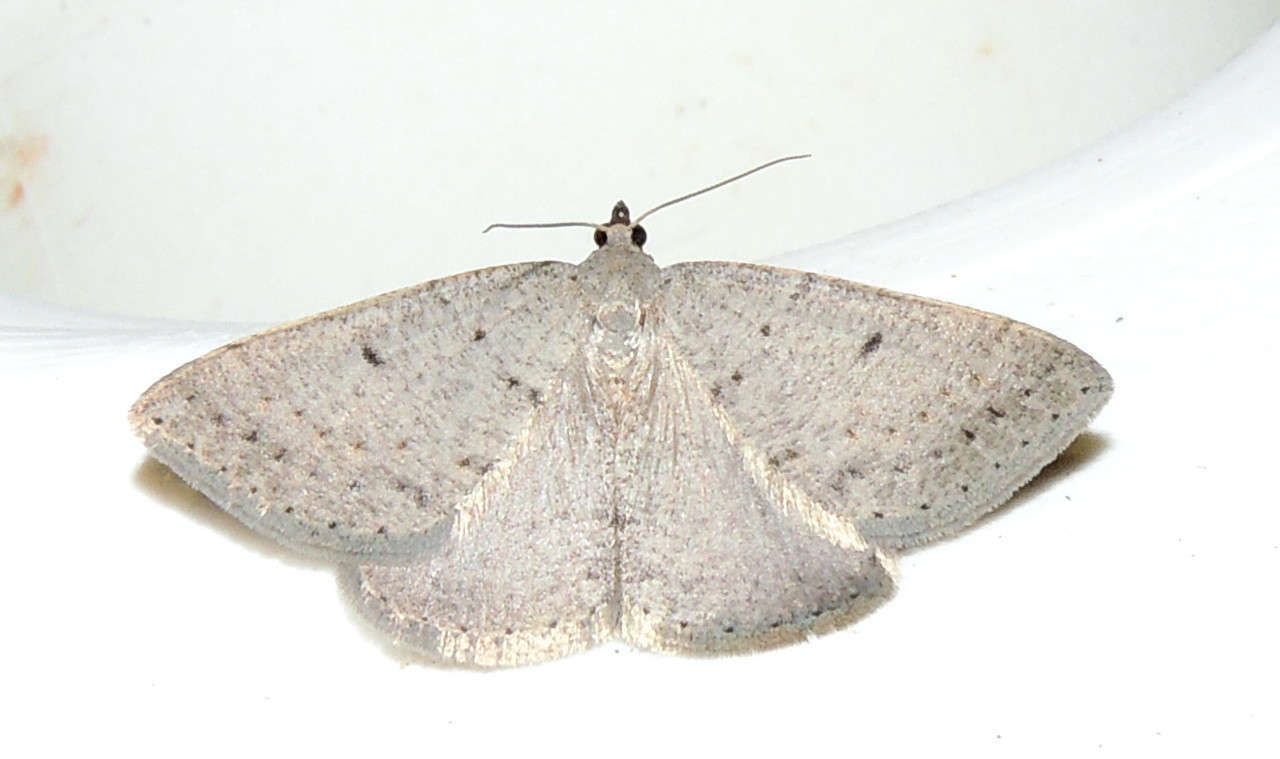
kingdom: Animalia
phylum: Arthropoda
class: Insecta
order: Lepidoptera
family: Geometridae
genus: Taxeotis
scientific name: Taxeotis reserata
